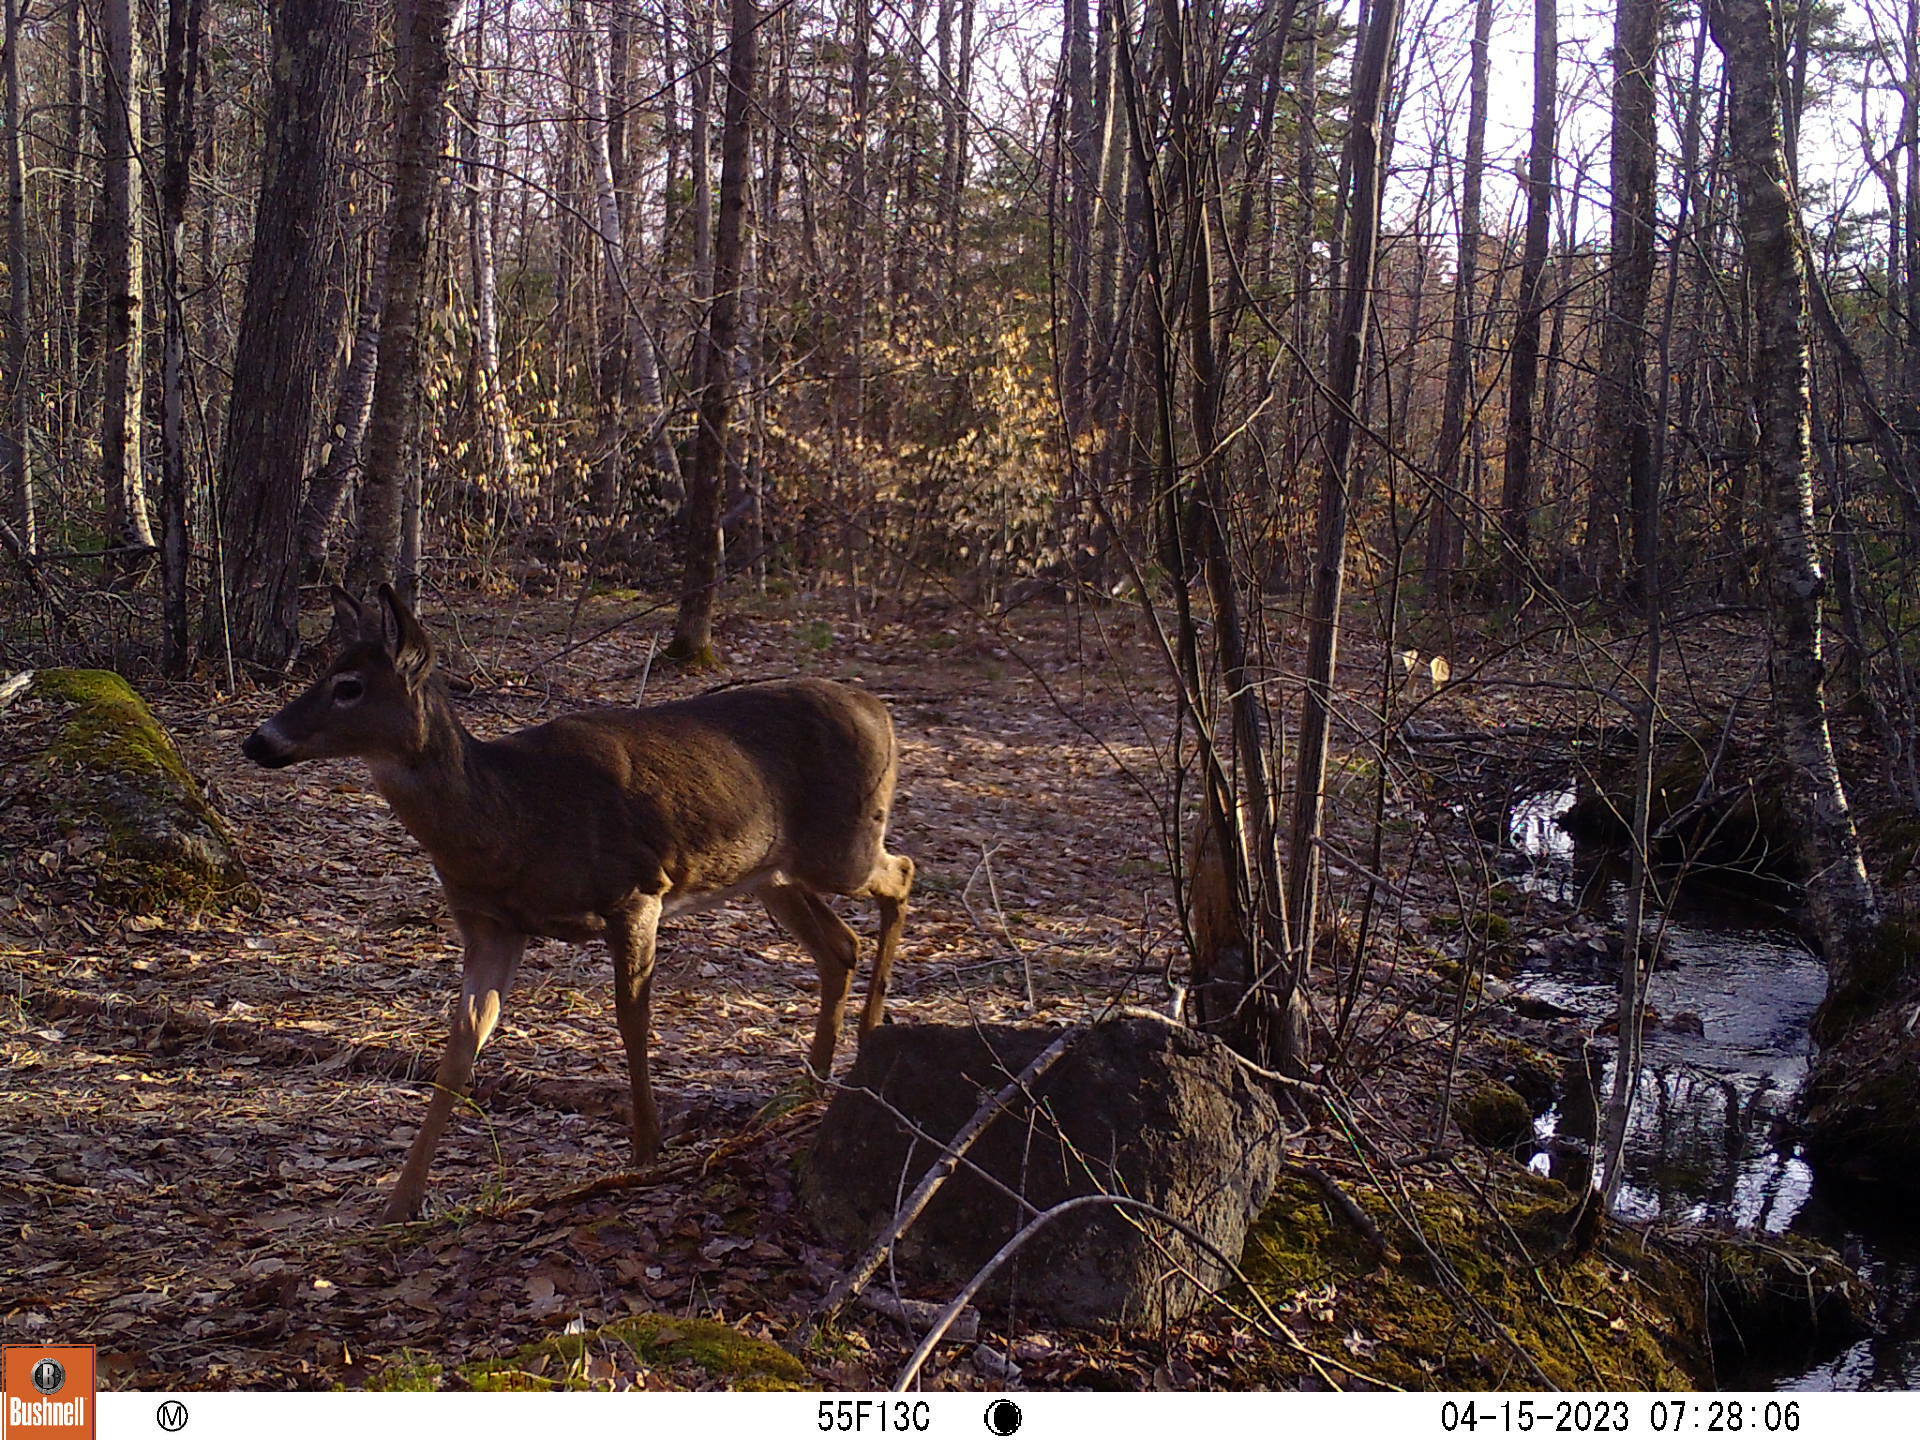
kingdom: Animalia
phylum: Chordata
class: Mammalia
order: Artiodactyla
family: Cervidae
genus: Odocoileus
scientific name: Odocoileus virginianus
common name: White-tailed deer
